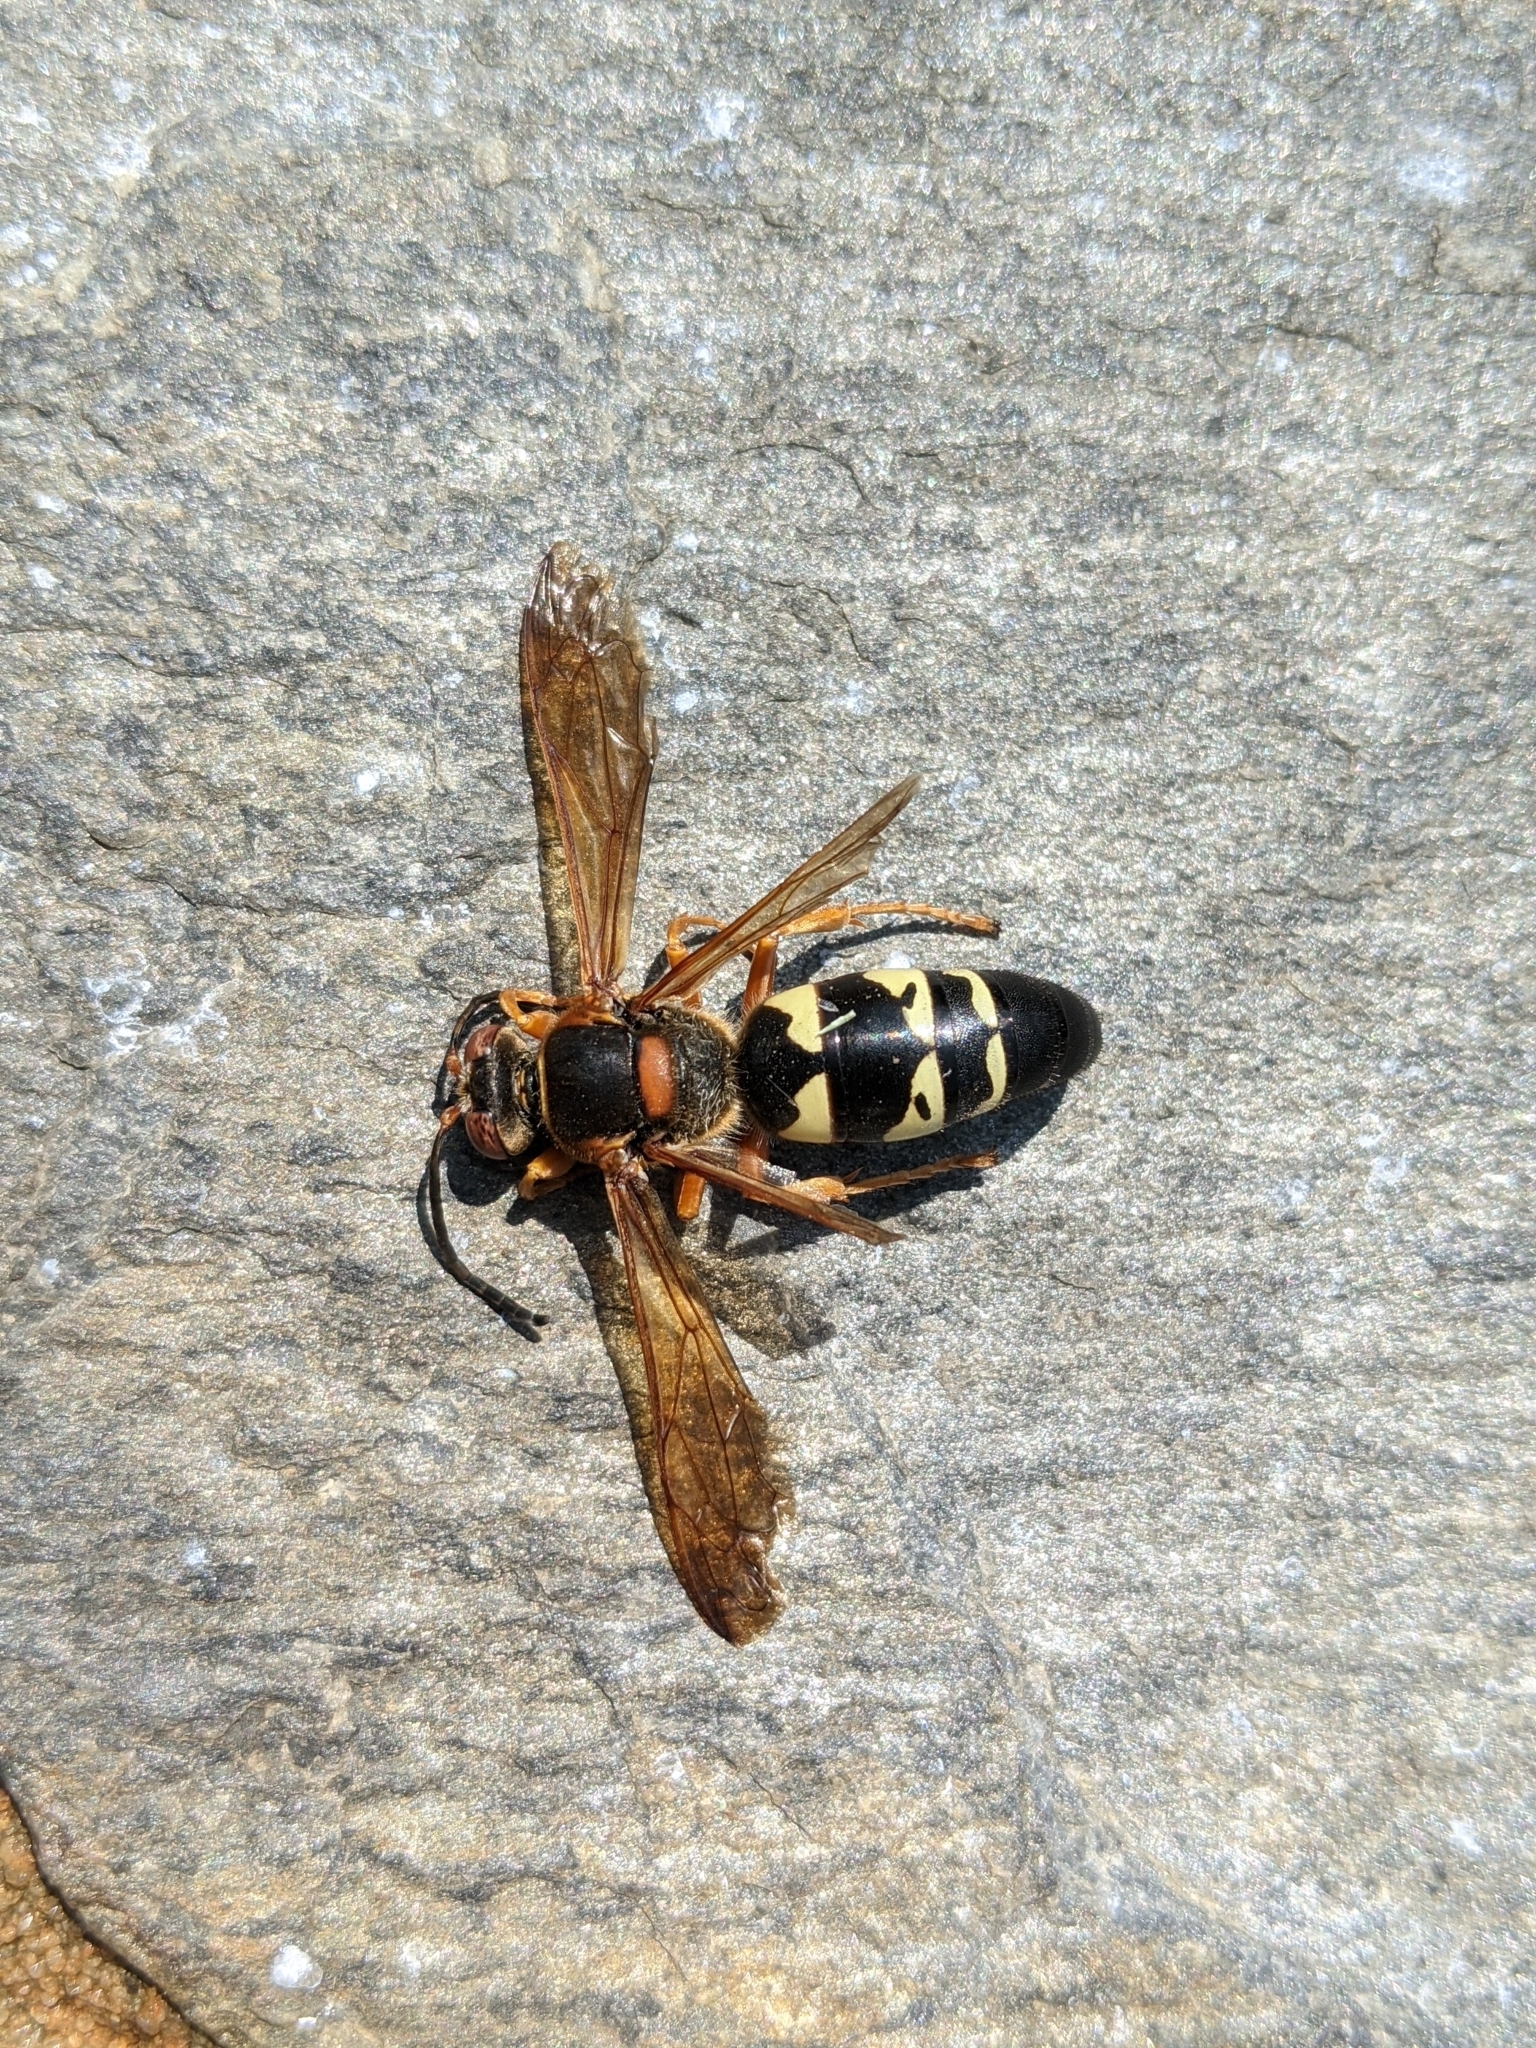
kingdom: Animalia
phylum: Arthropoda
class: Insecta
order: Hymenoptera
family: Crabronidae
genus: Sphecius
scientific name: Sphecius speciosus
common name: Cicada killer
